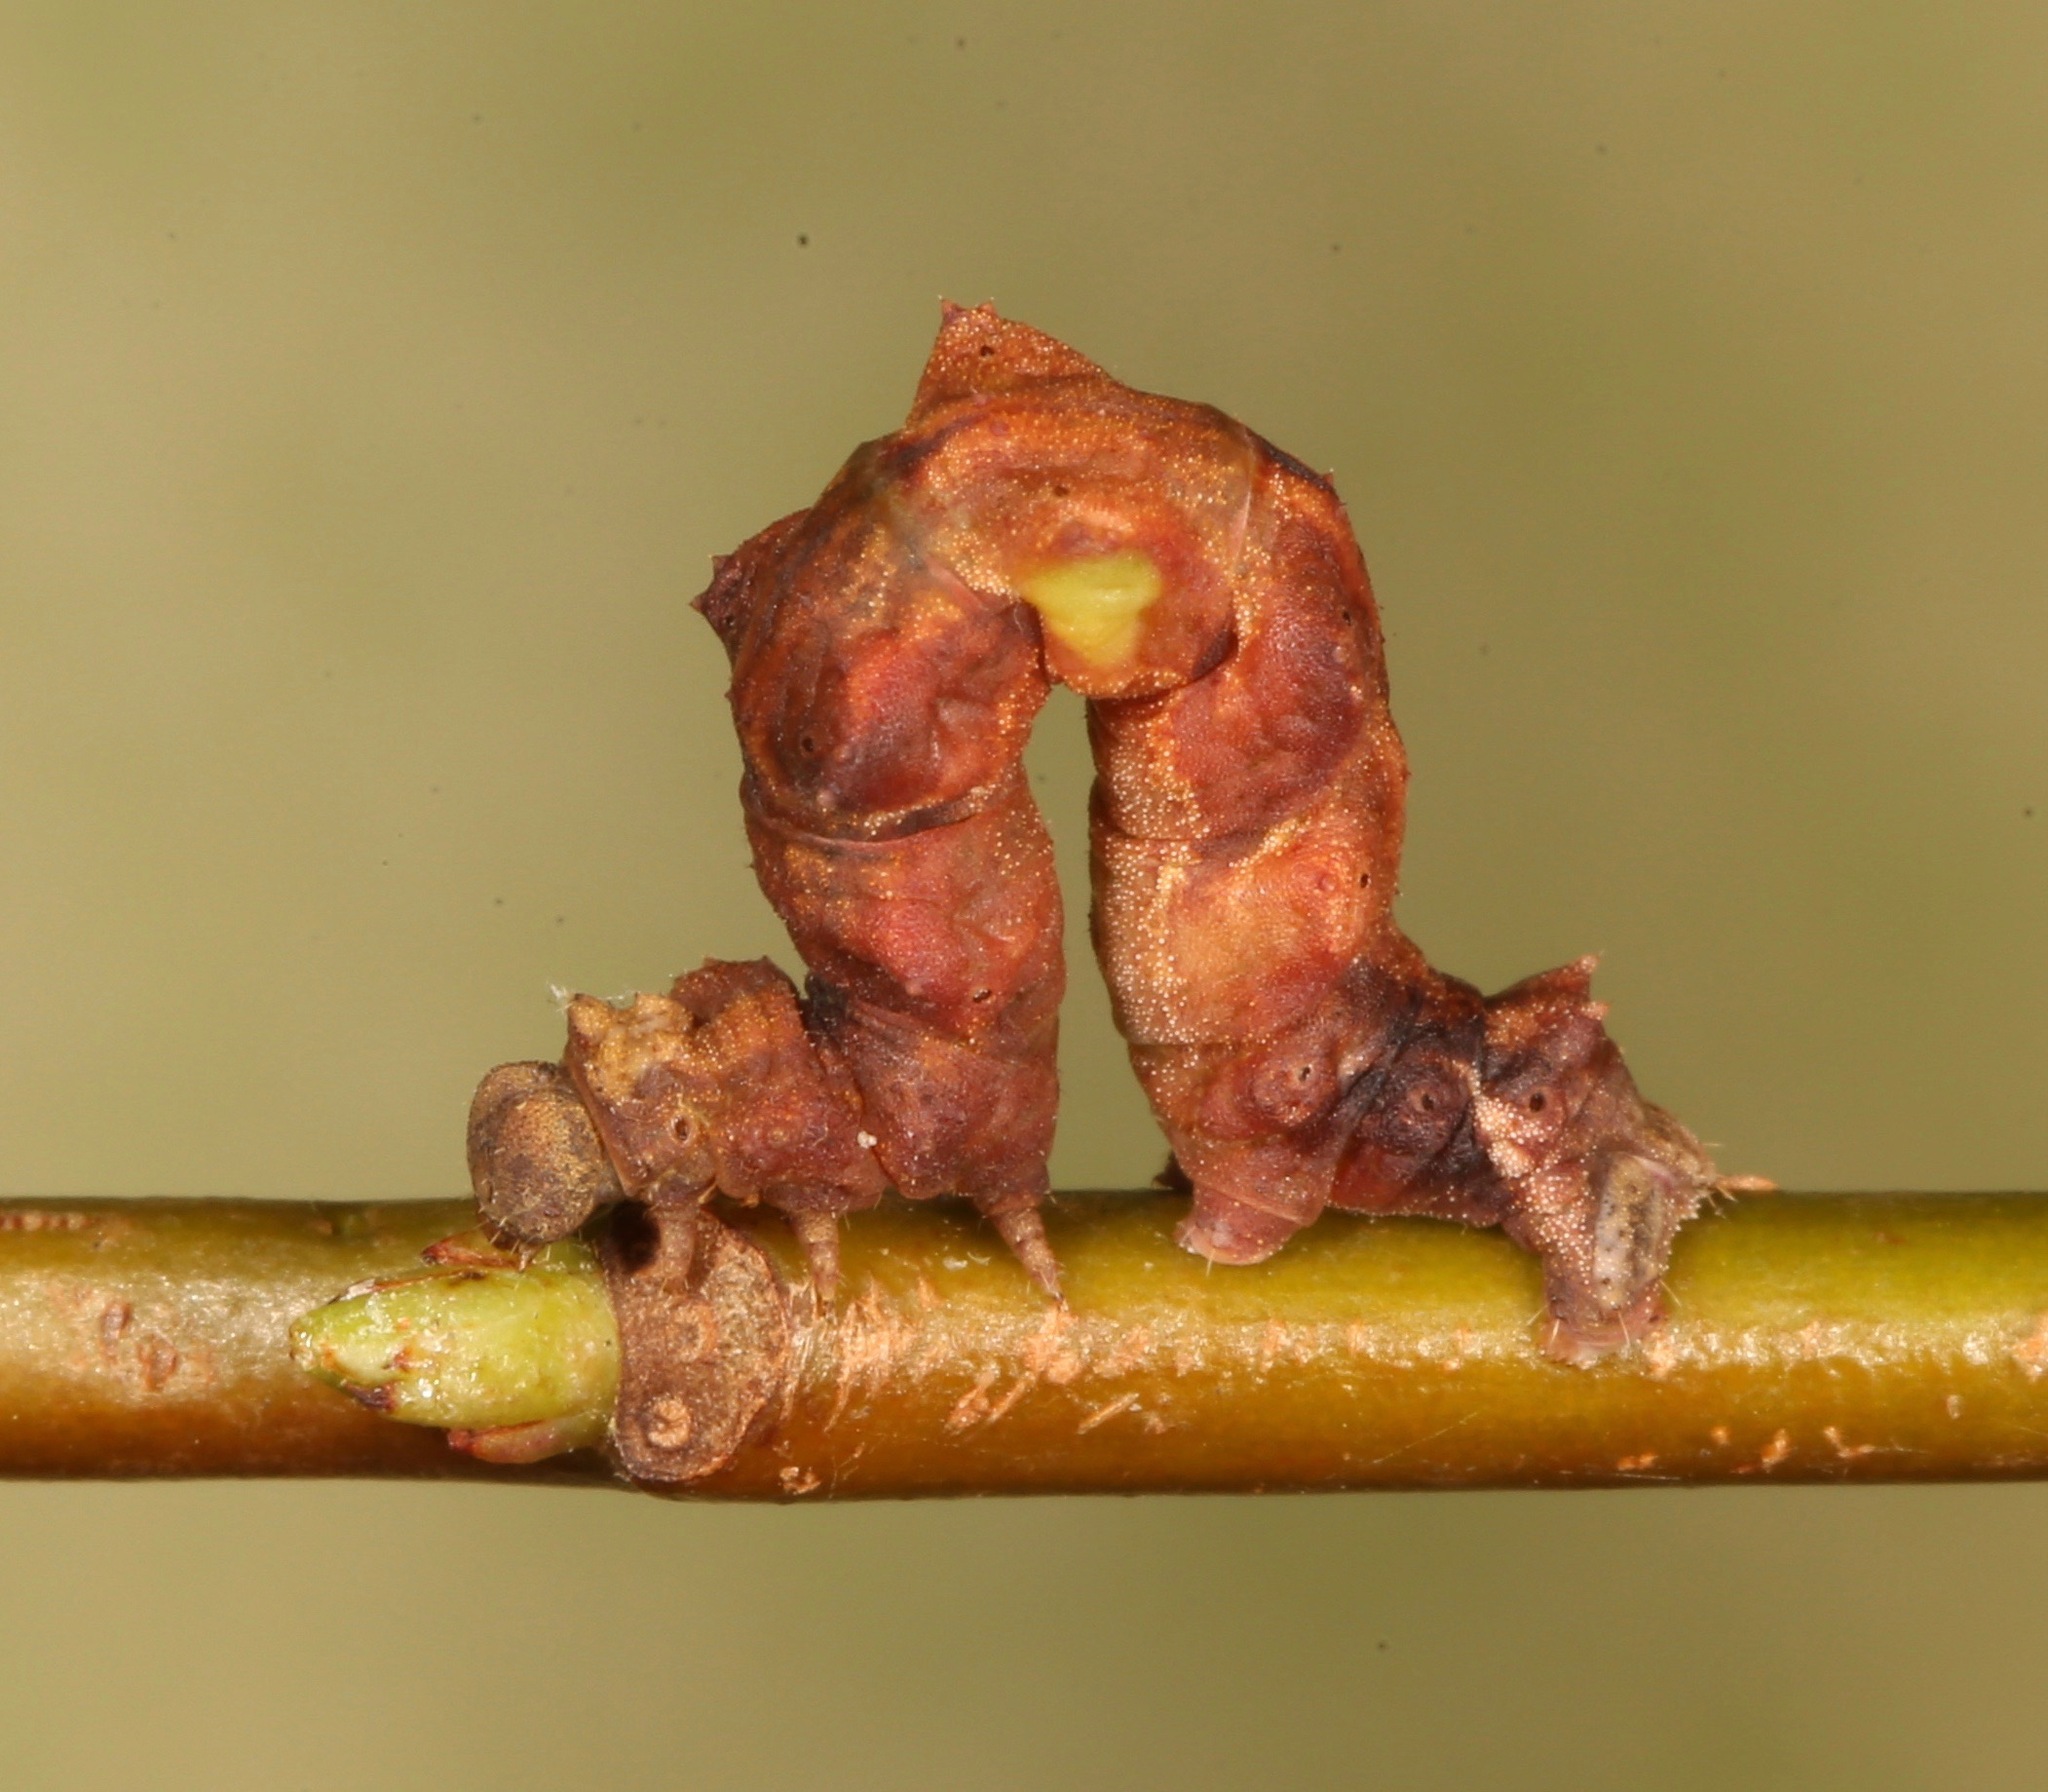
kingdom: Animalia
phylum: Arthropoda
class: Insecta
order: Lepidoptera
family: Geometridae
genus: Nemoria
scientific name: Nemoria saturiba
